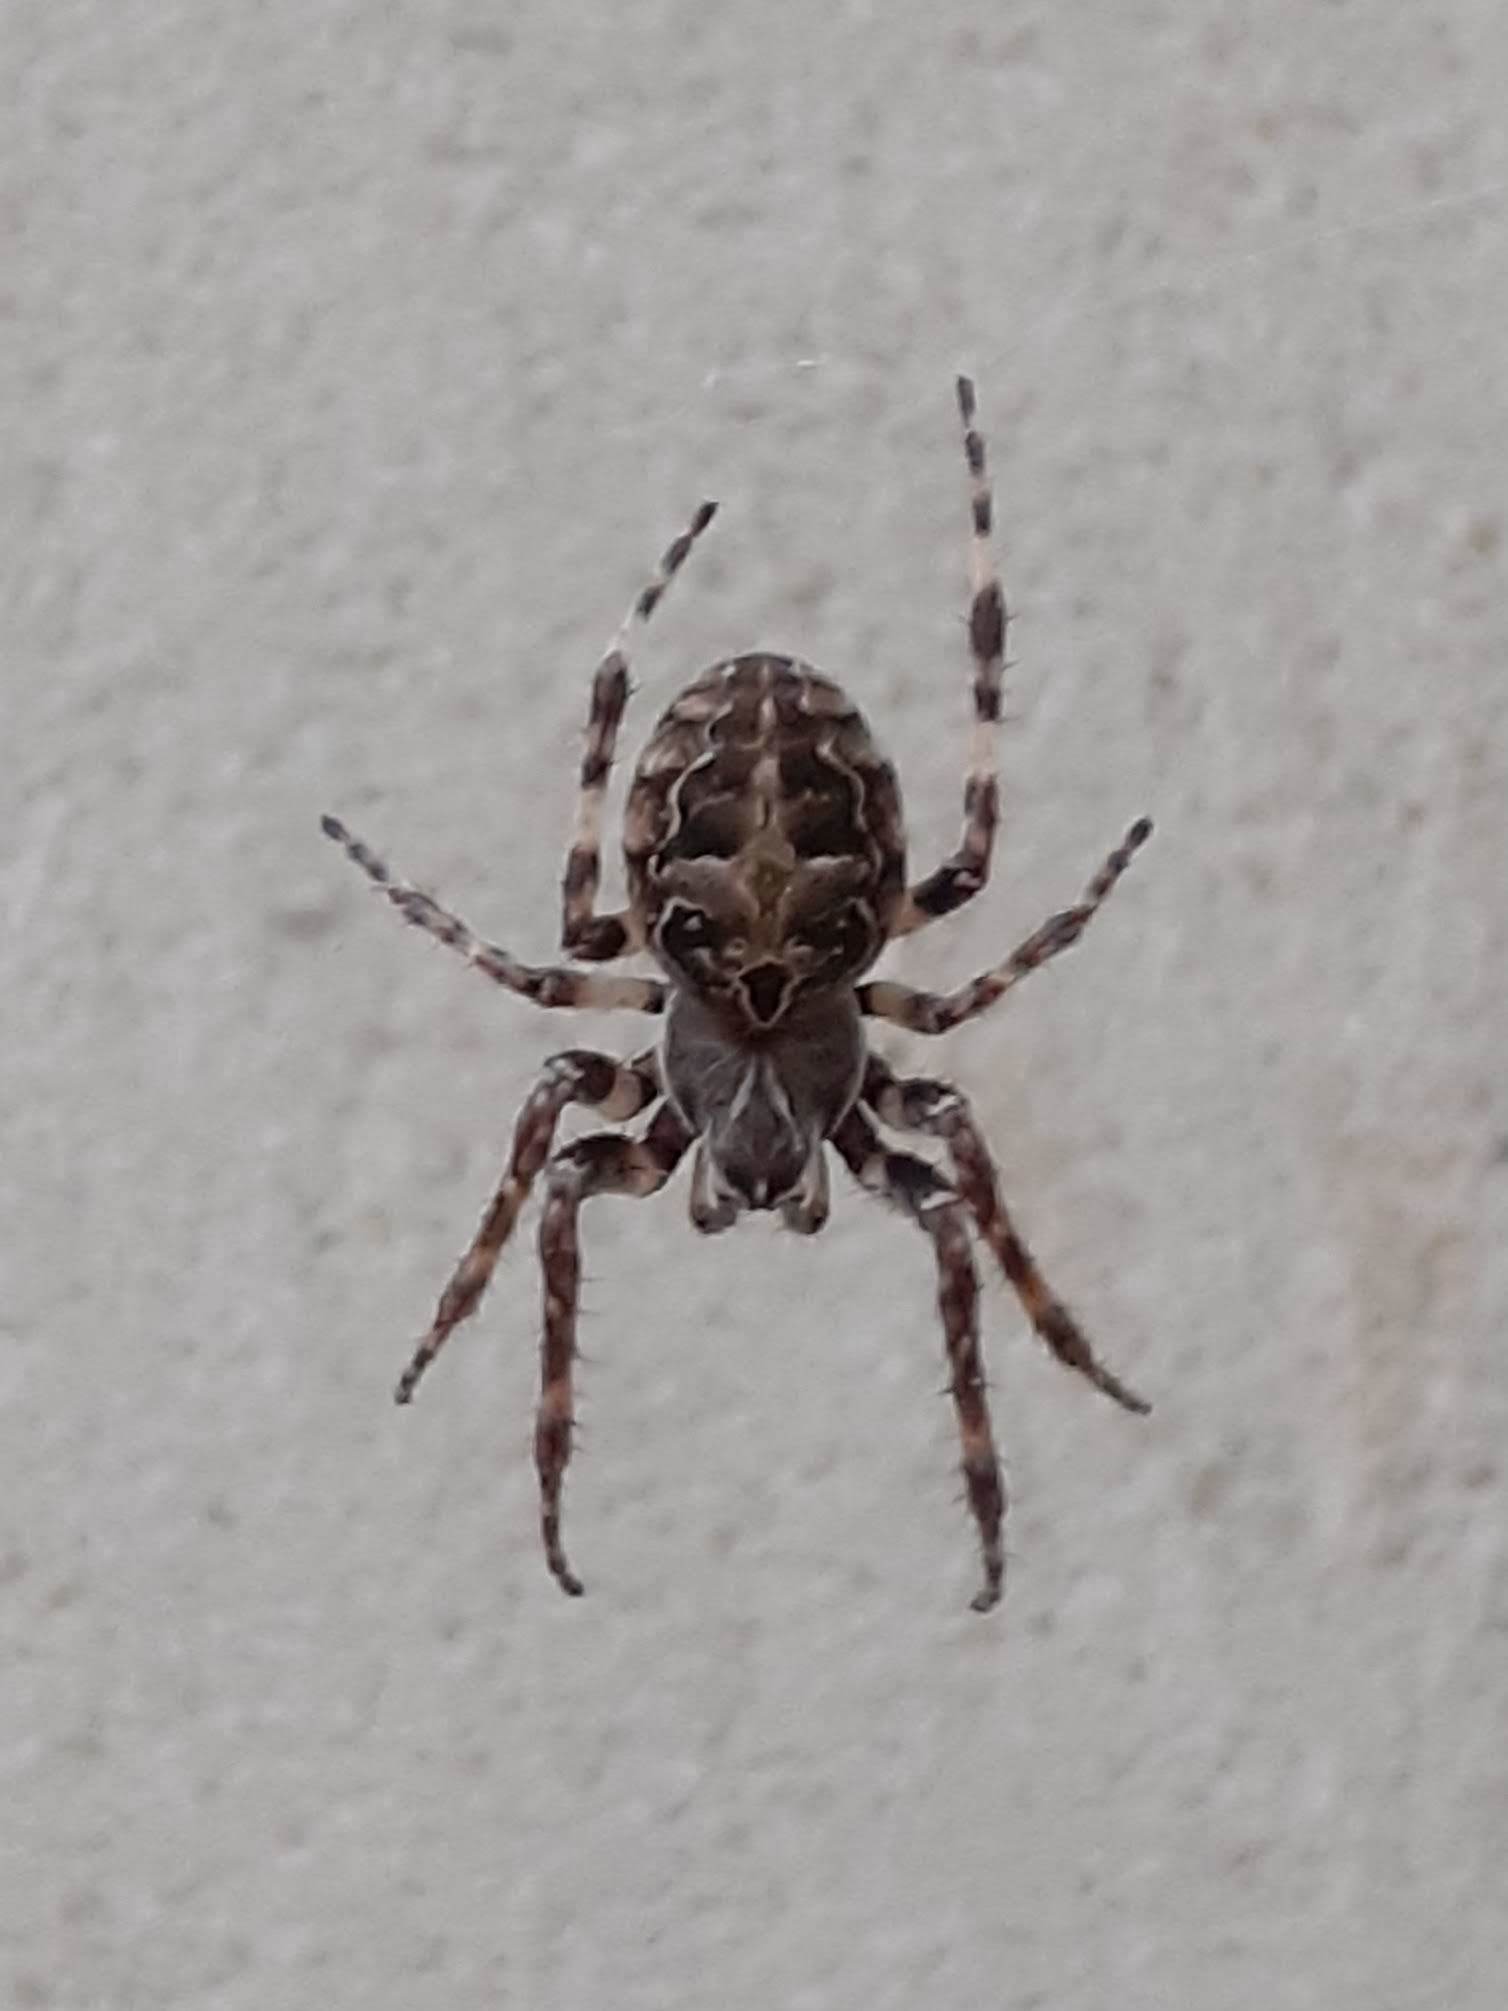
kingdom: Animalia
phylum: Arthropoda
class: Arachnida
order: Araneae
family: Araneidae
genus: Larinioides
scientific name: Larinioides sclopetarius
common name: Bridge orbweaver
